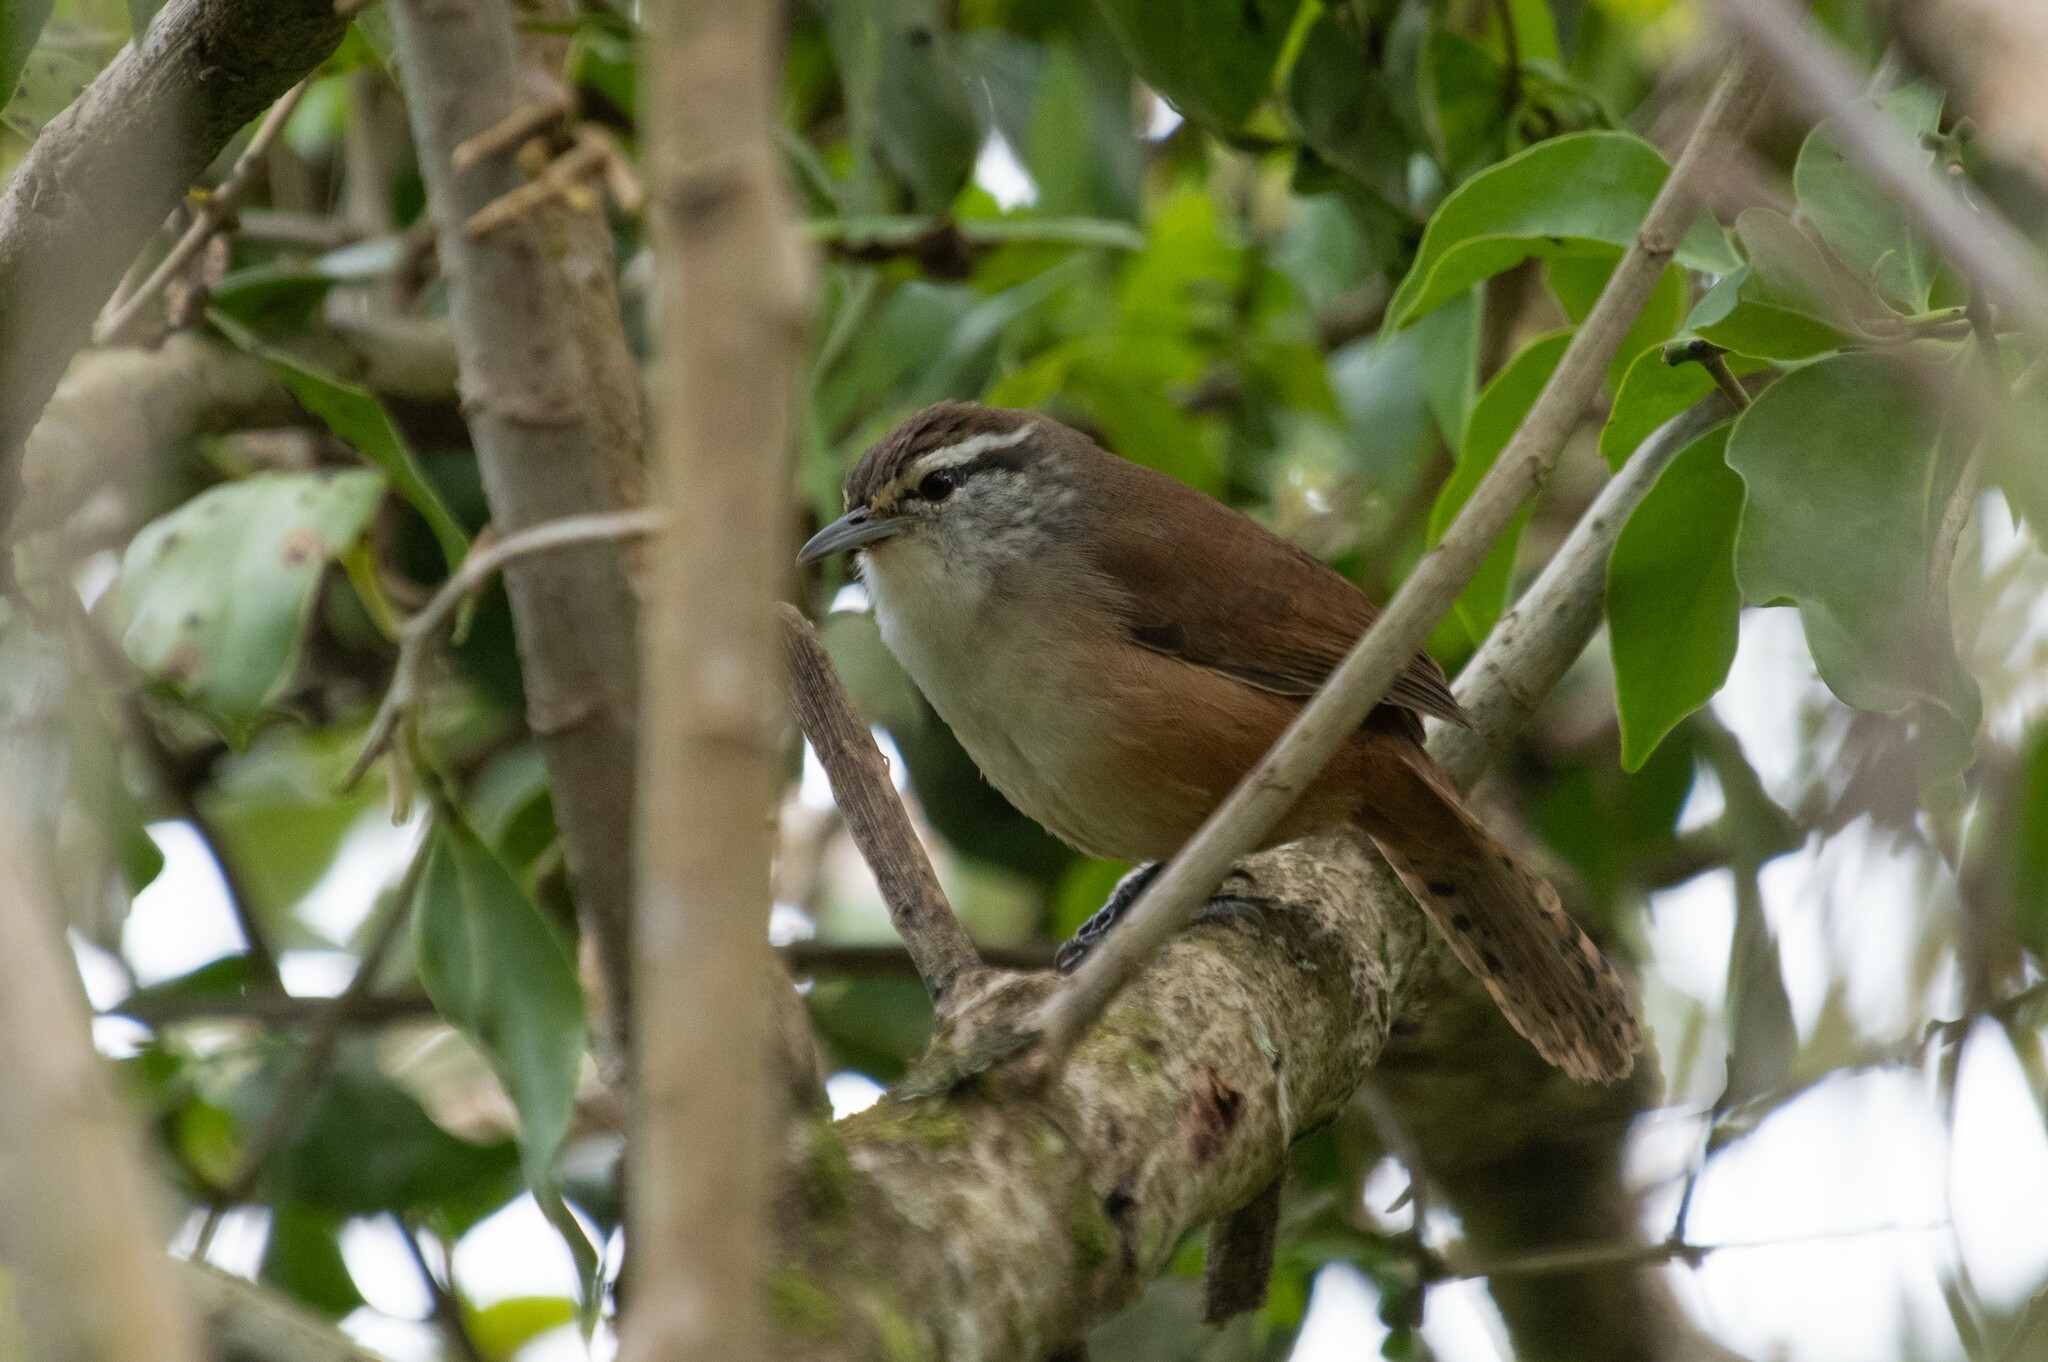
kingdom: Animalia
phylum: Chordata
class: Aves
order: Passeriformes
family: Troglodytidae
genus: Cantorchilus
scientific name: Cantorchilus modestus
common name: Cabanis's wren
